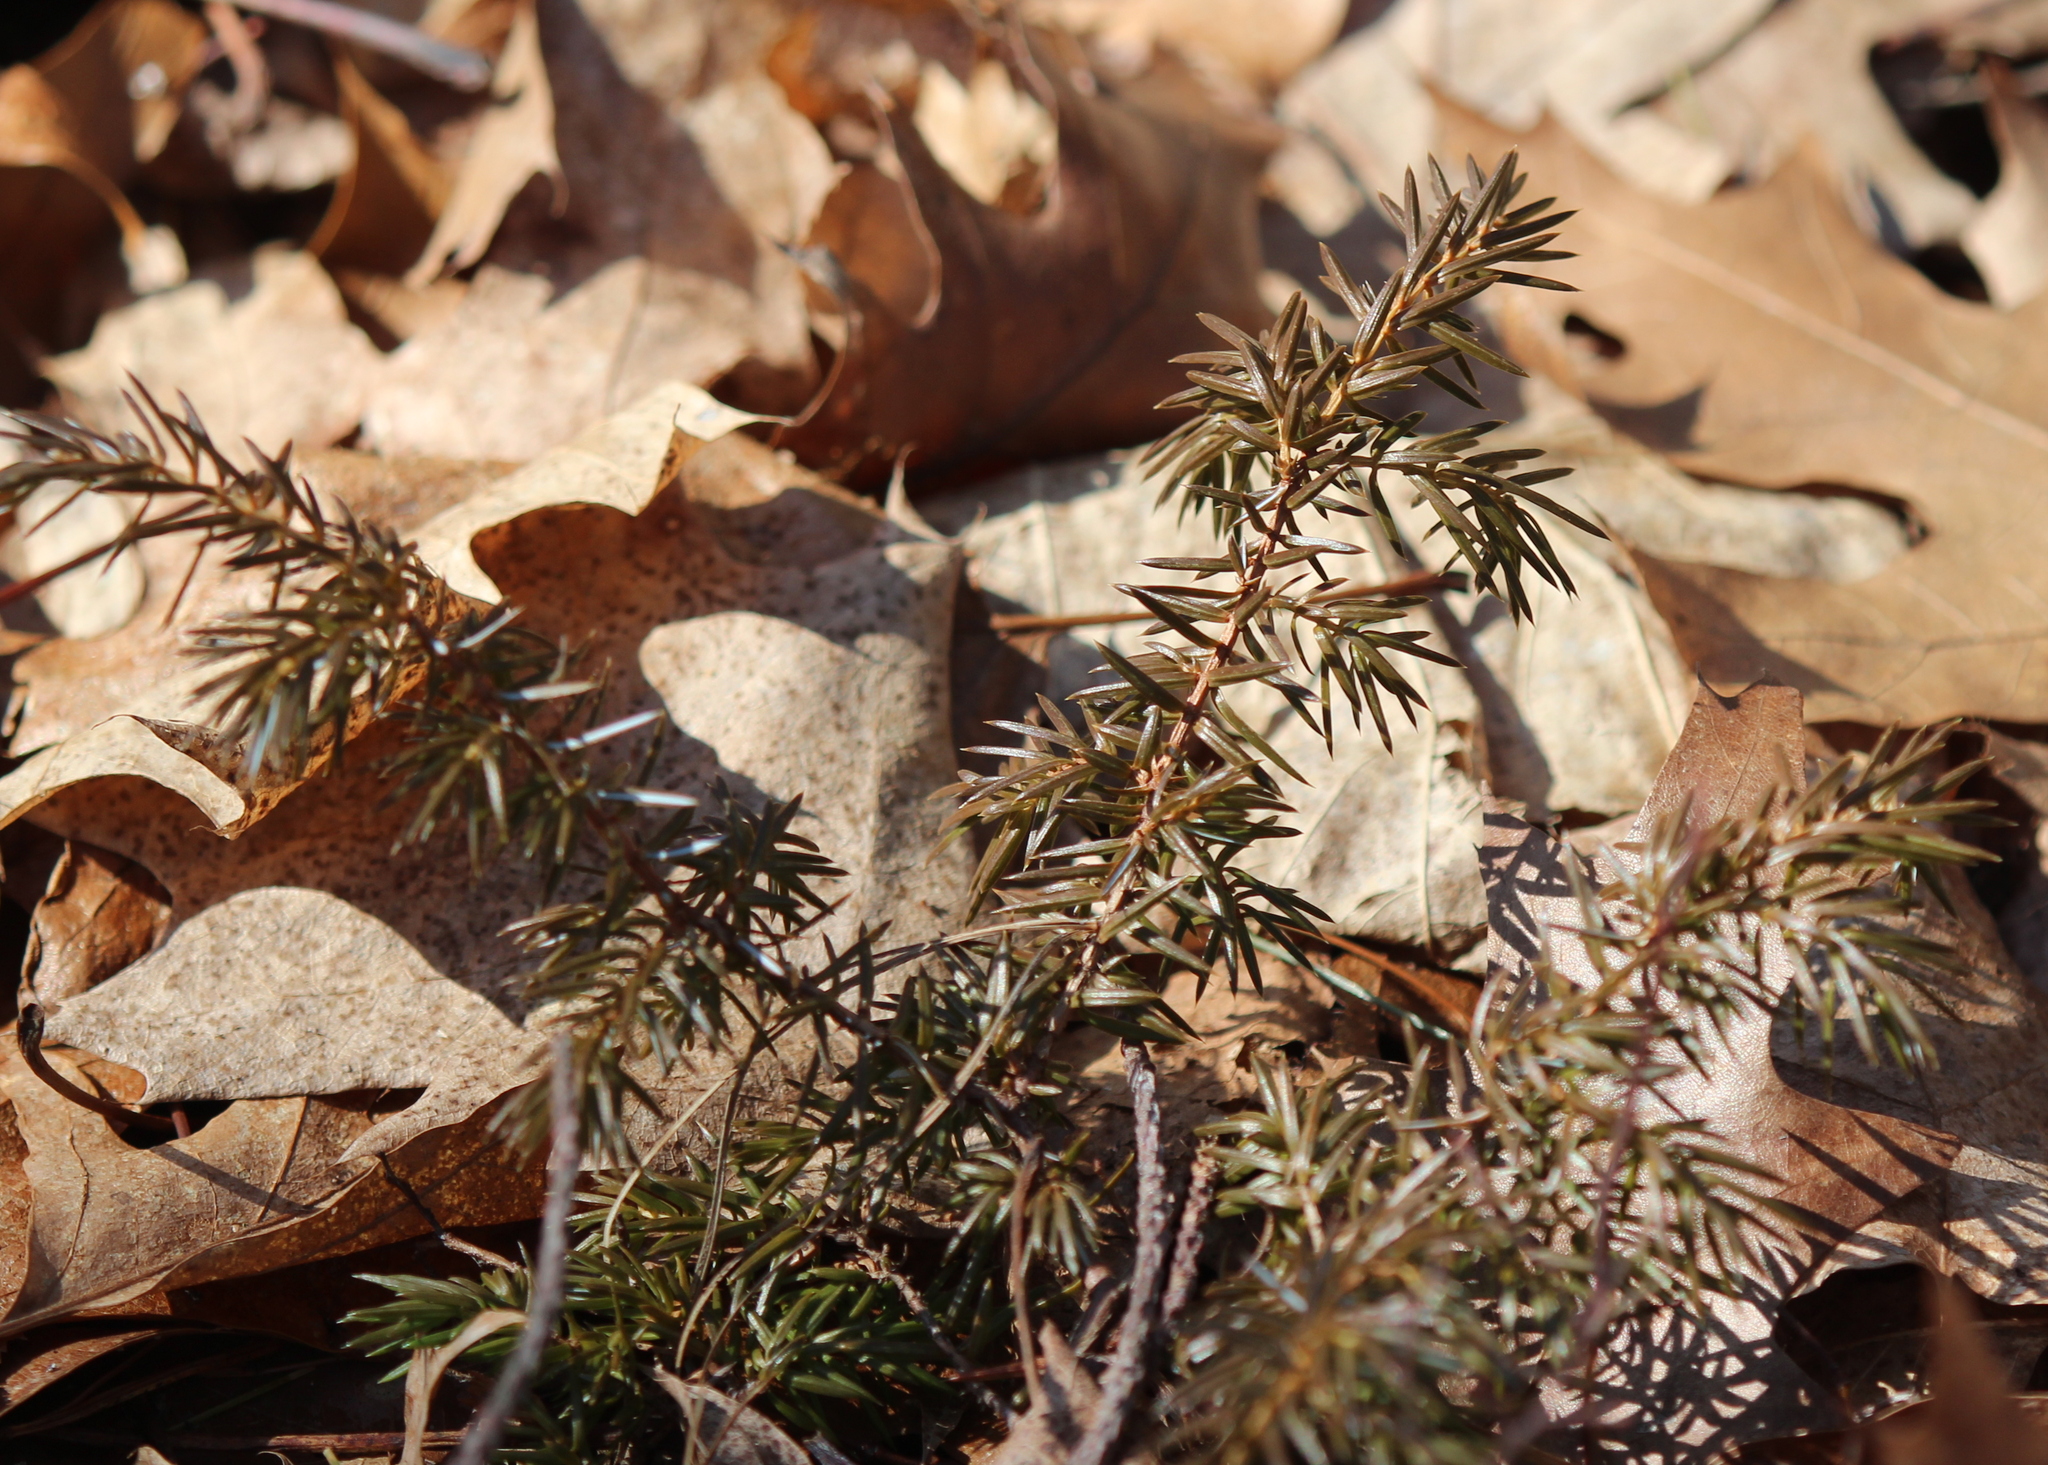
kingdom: Plantae
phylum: Tracheophyta
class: Pinopsida
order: Pinales
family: Cupressaceae
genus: Juniperus
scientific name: Juniperus communis
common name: Common juniper
